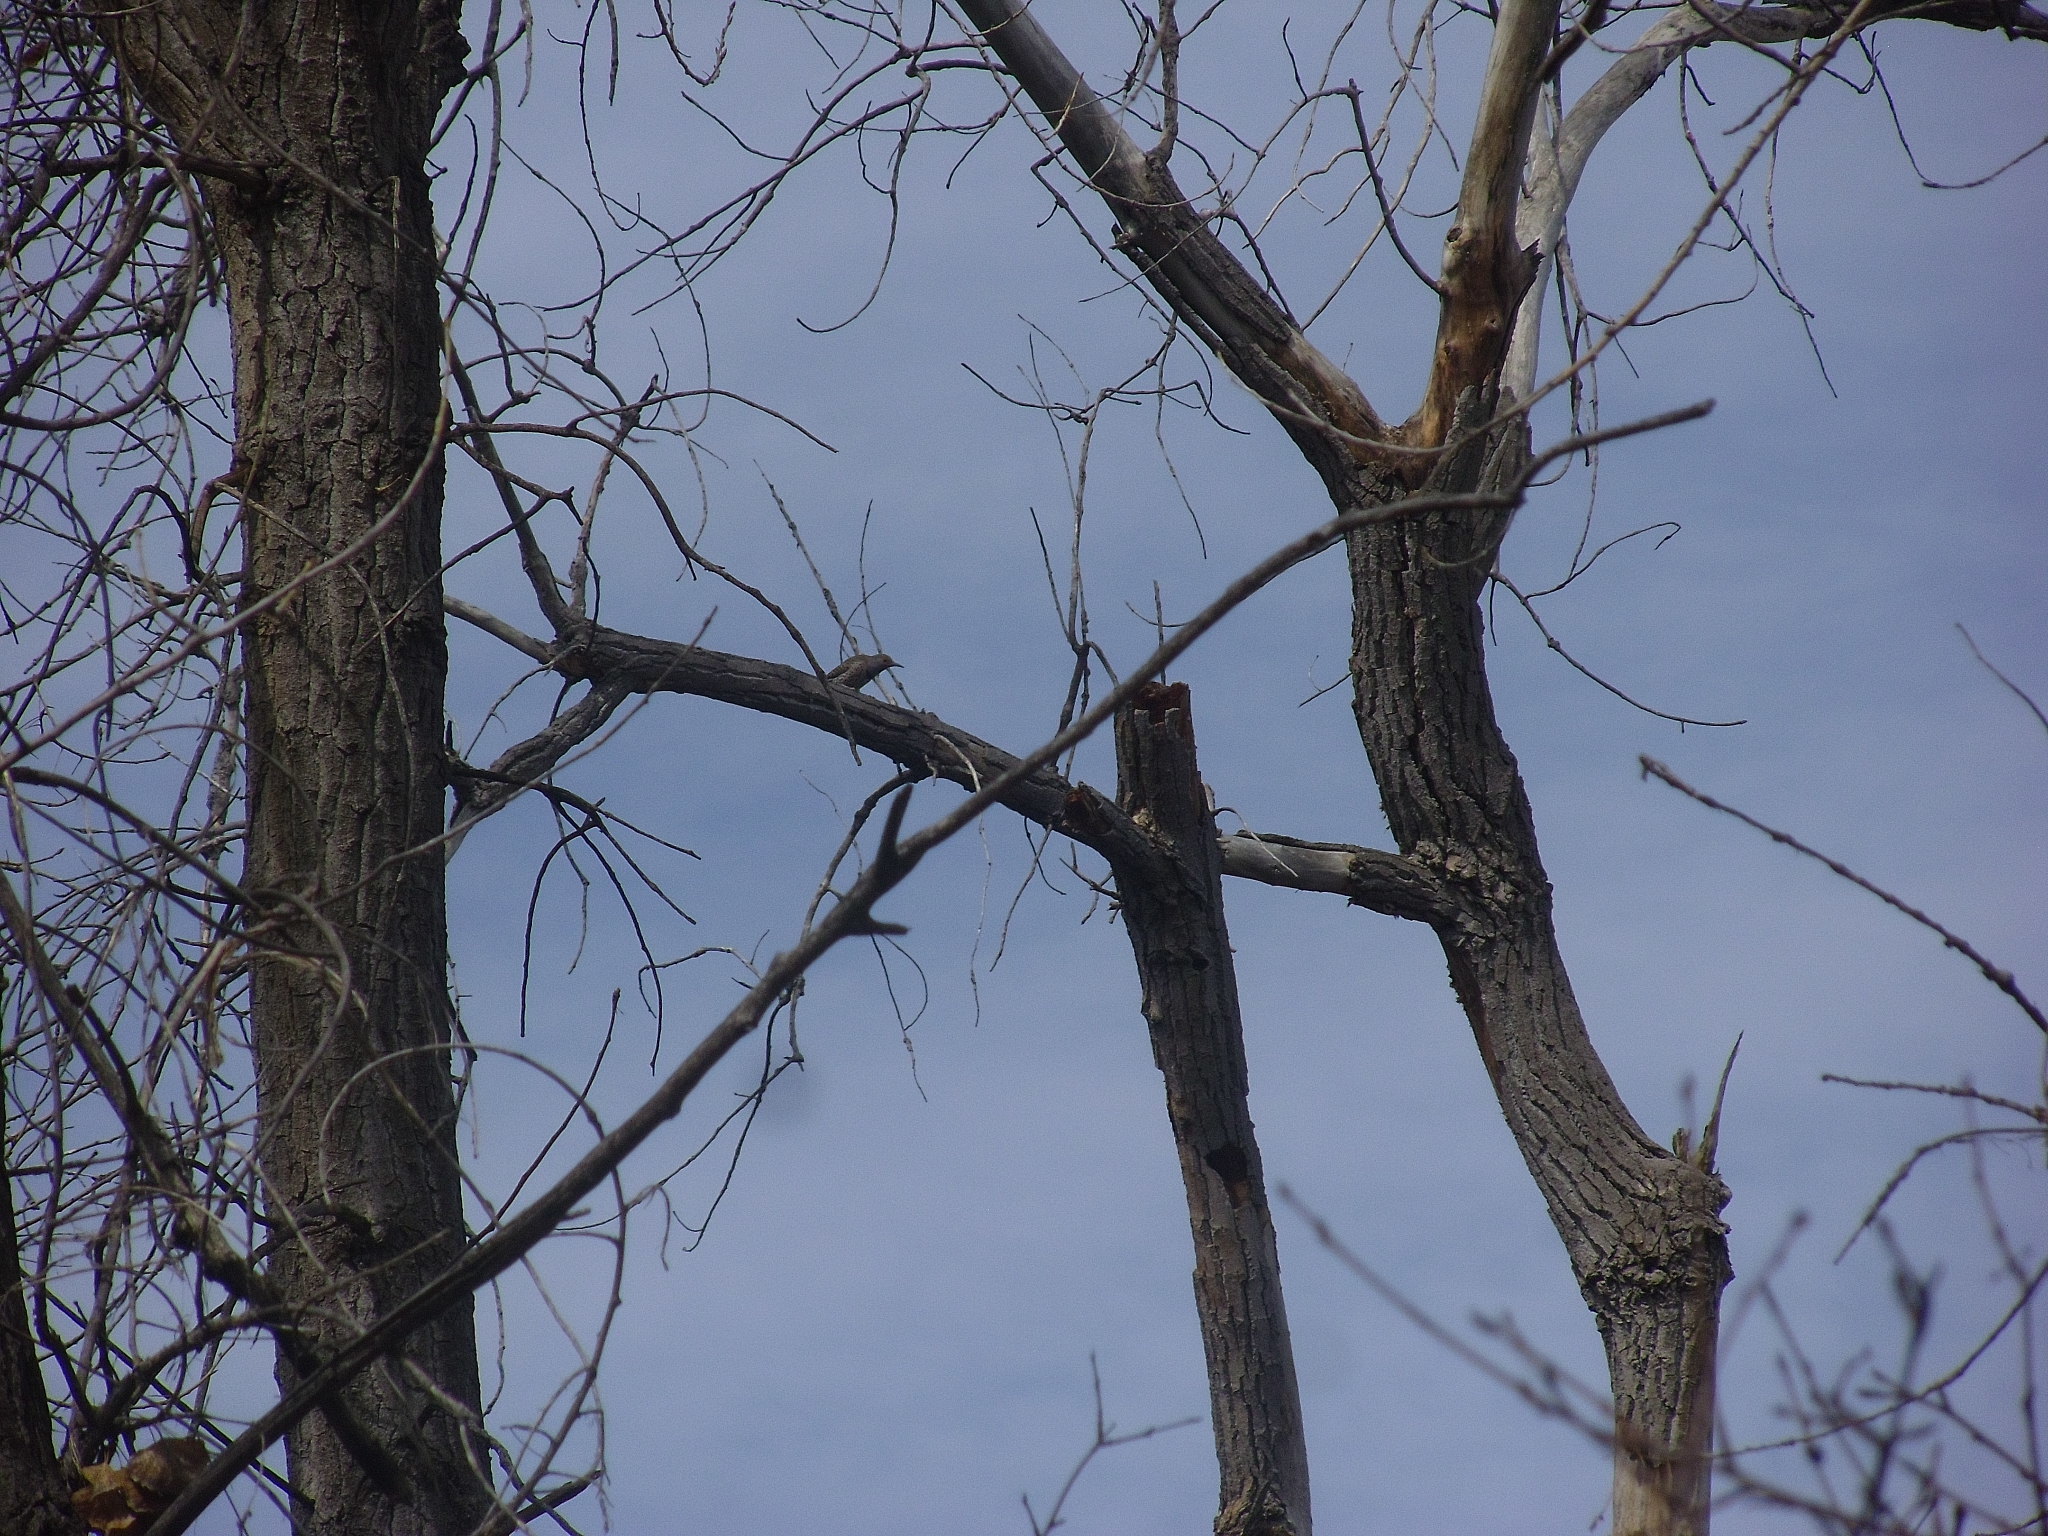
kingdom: Animalia
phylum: Chordata
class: Aves
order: Piciformes
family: Picidae
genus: Colaptes
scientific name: Colaptes auratus
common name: Northern flicker
